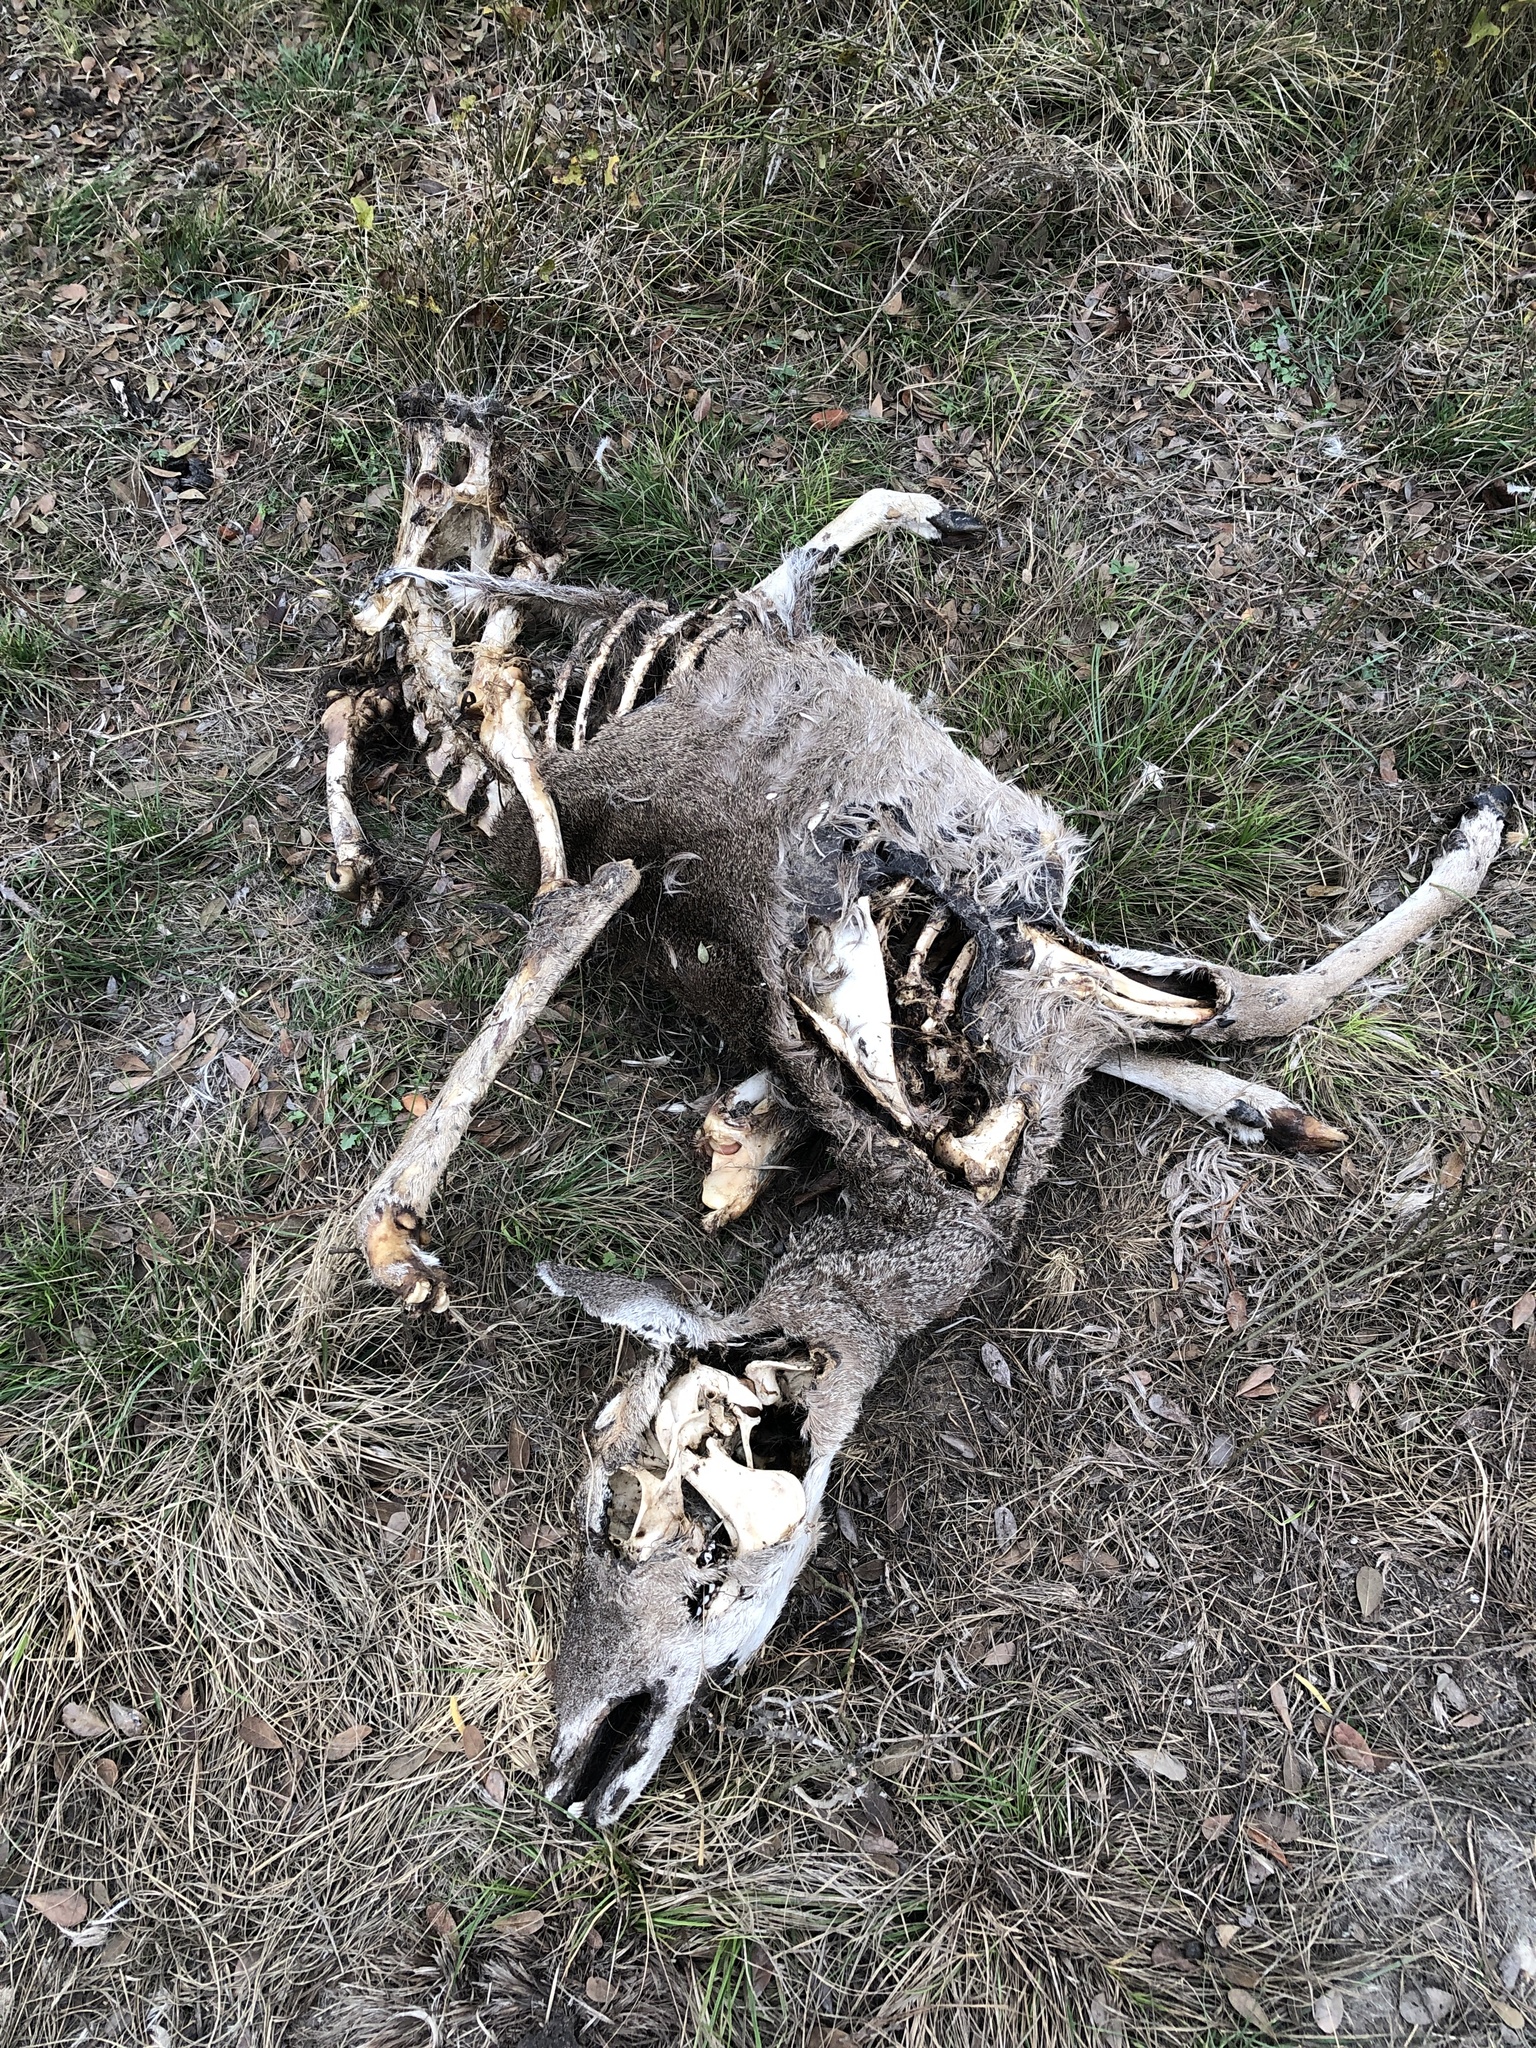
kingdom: Animalia
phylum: Chordata
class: Mammalia
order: Artiodactyla
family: Cervidae
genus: Odocoileus
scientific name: Odocoileus virginianus
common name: White-tailed deer
